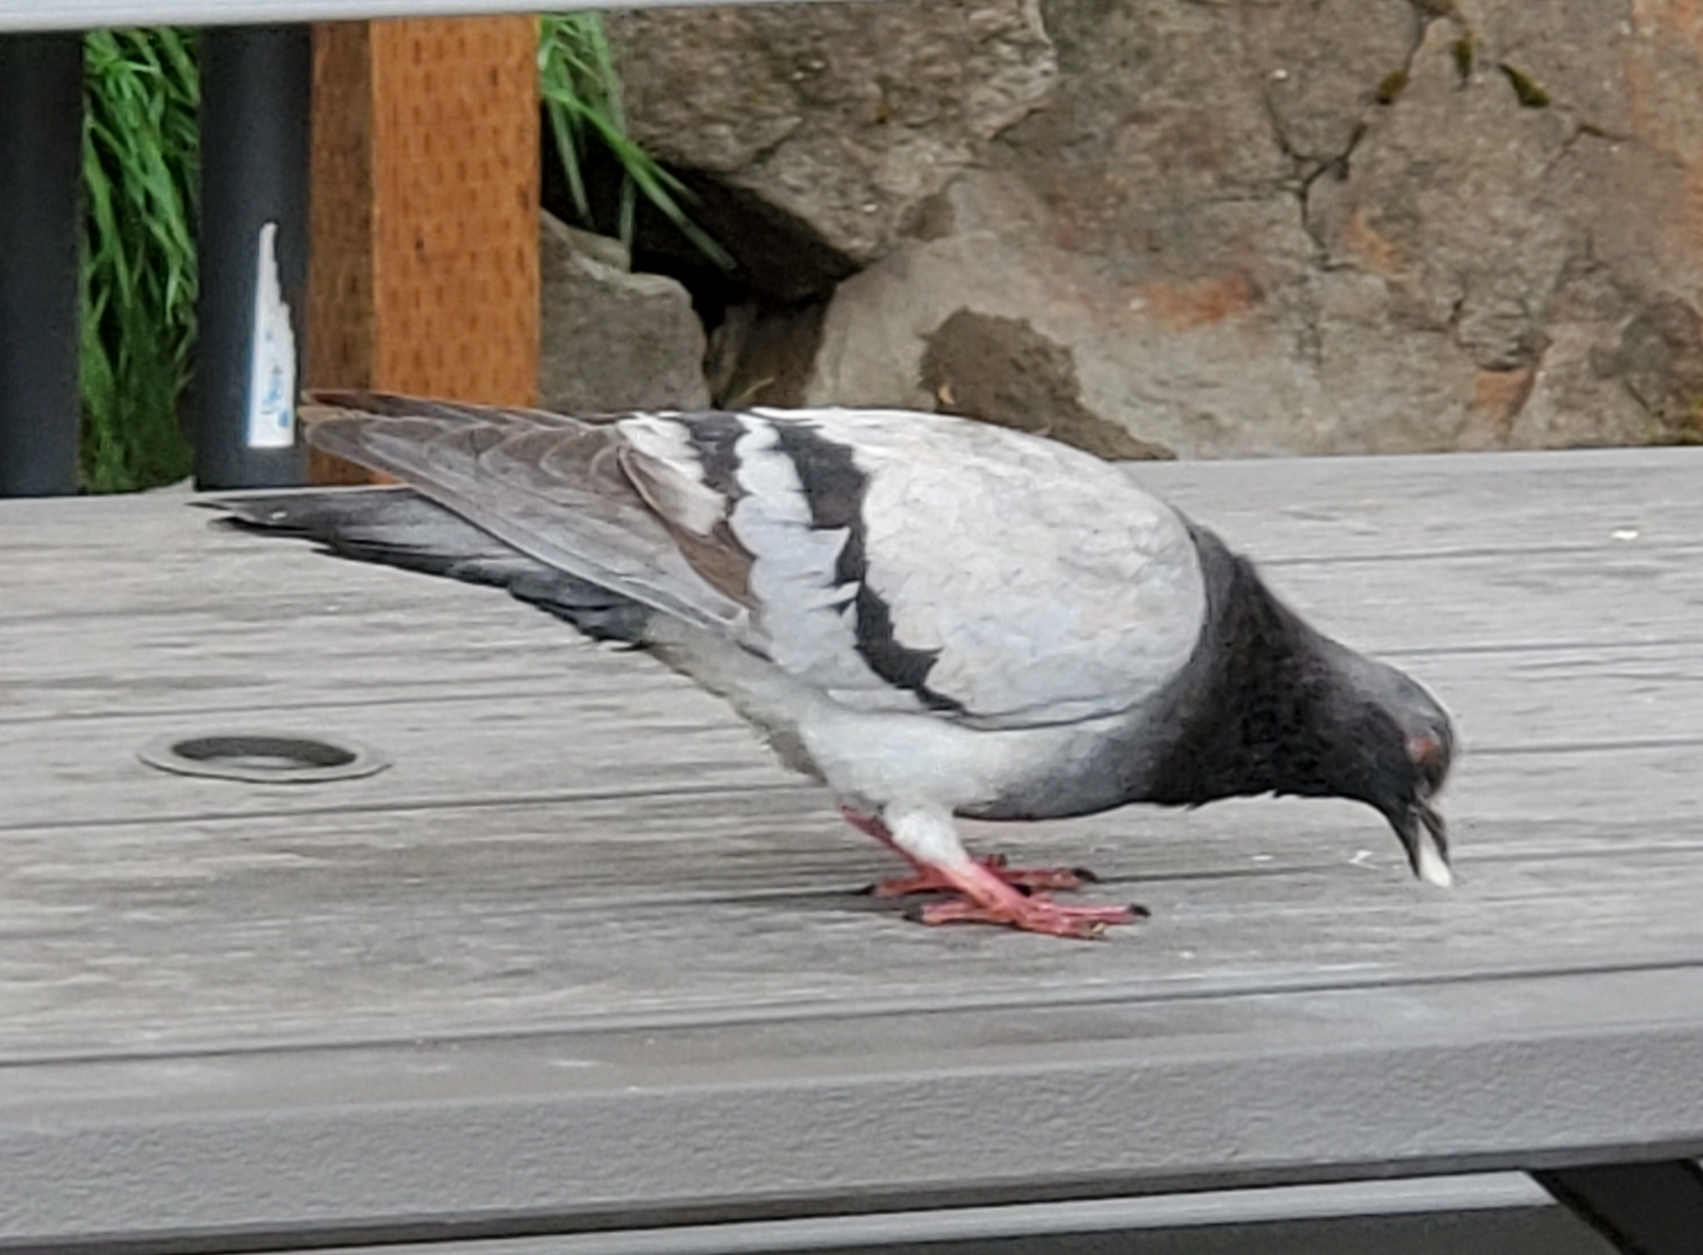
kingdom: Animalia
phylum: Chordata
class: Aves
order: Columbiformes
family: Columbidae
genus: Columba
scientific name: Columba livia
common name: Rock pigeon
